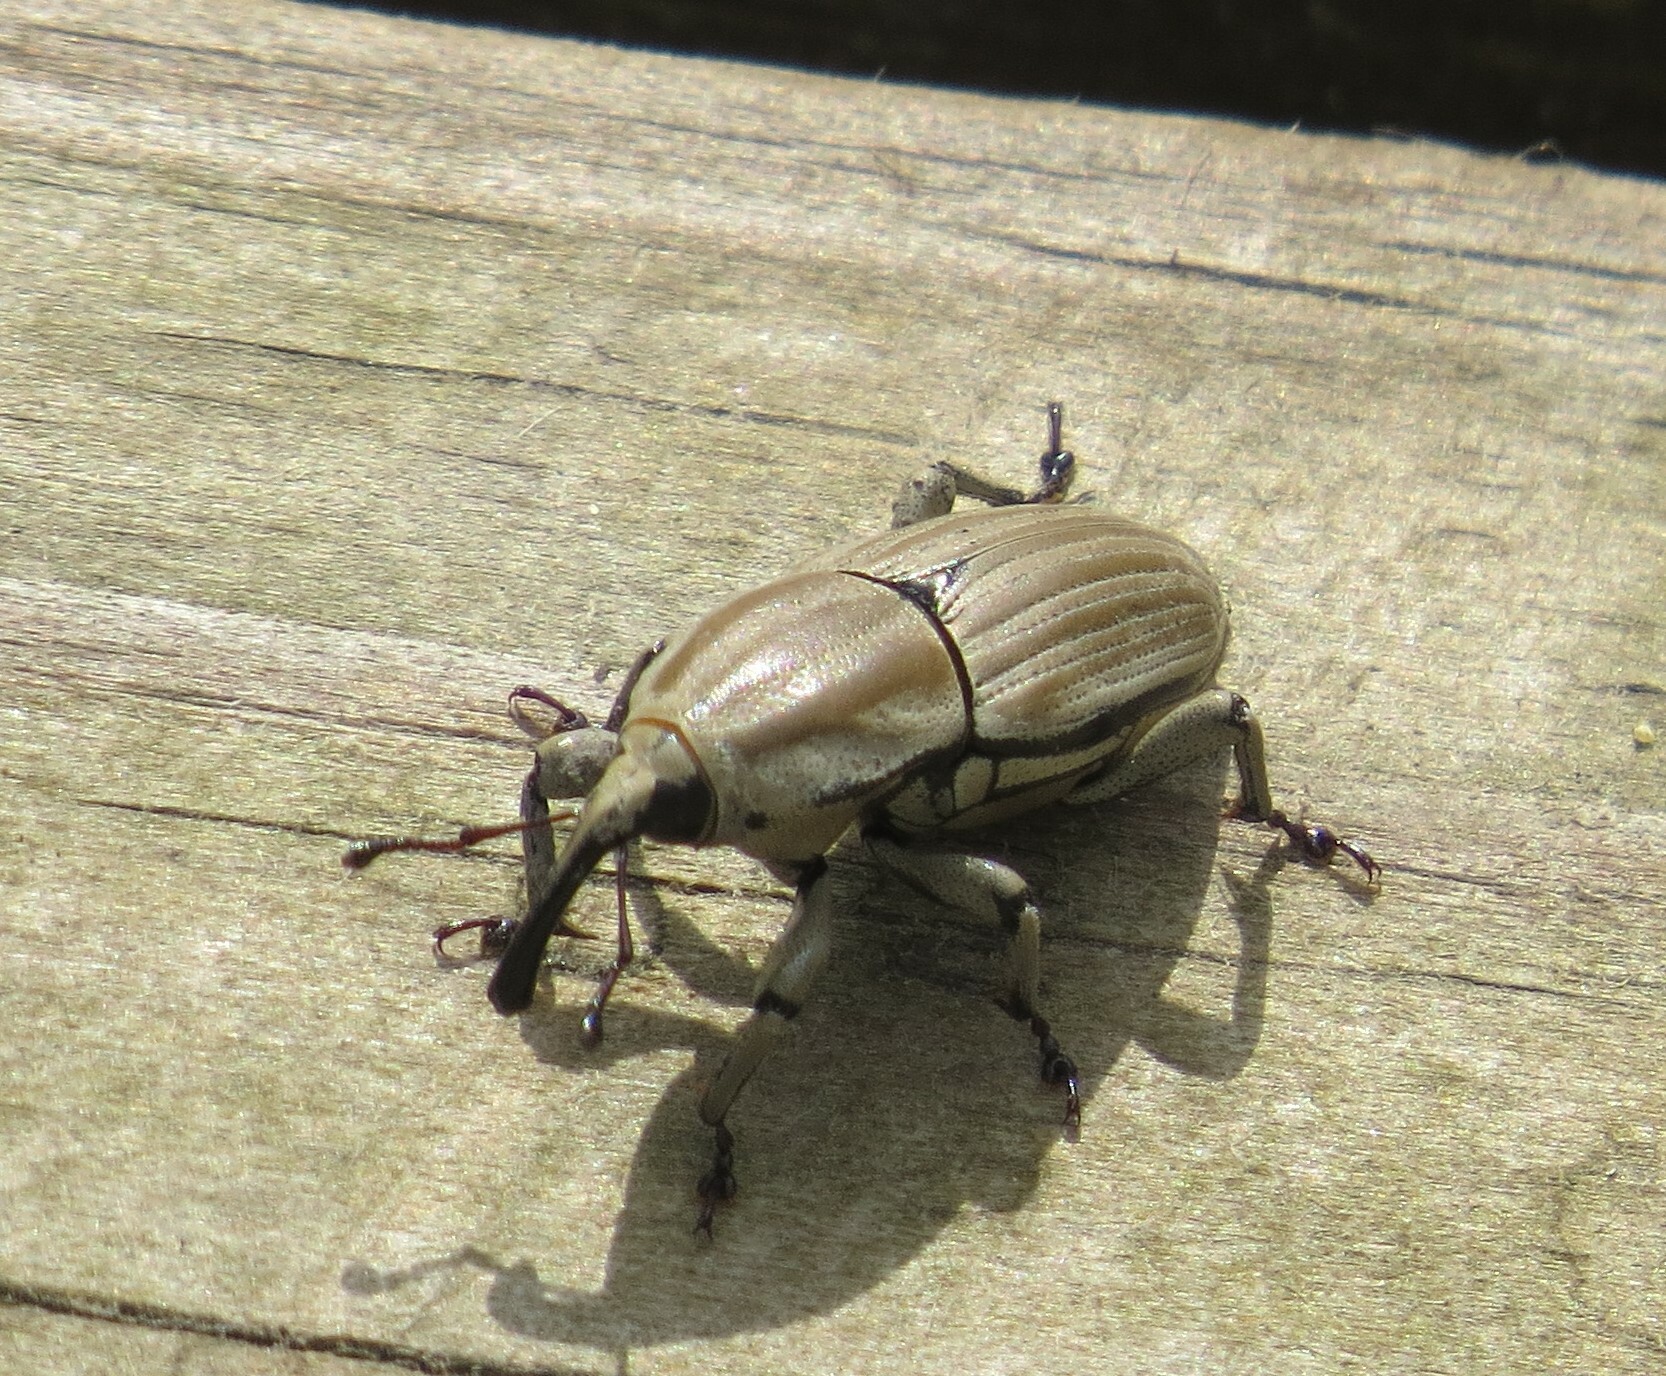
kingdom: Animalia
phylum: Arthropoda
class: Insecta
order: Coleoptera
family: Dryophthoridae
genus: Sphenophorus
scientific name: Sphenophorus aequalis
